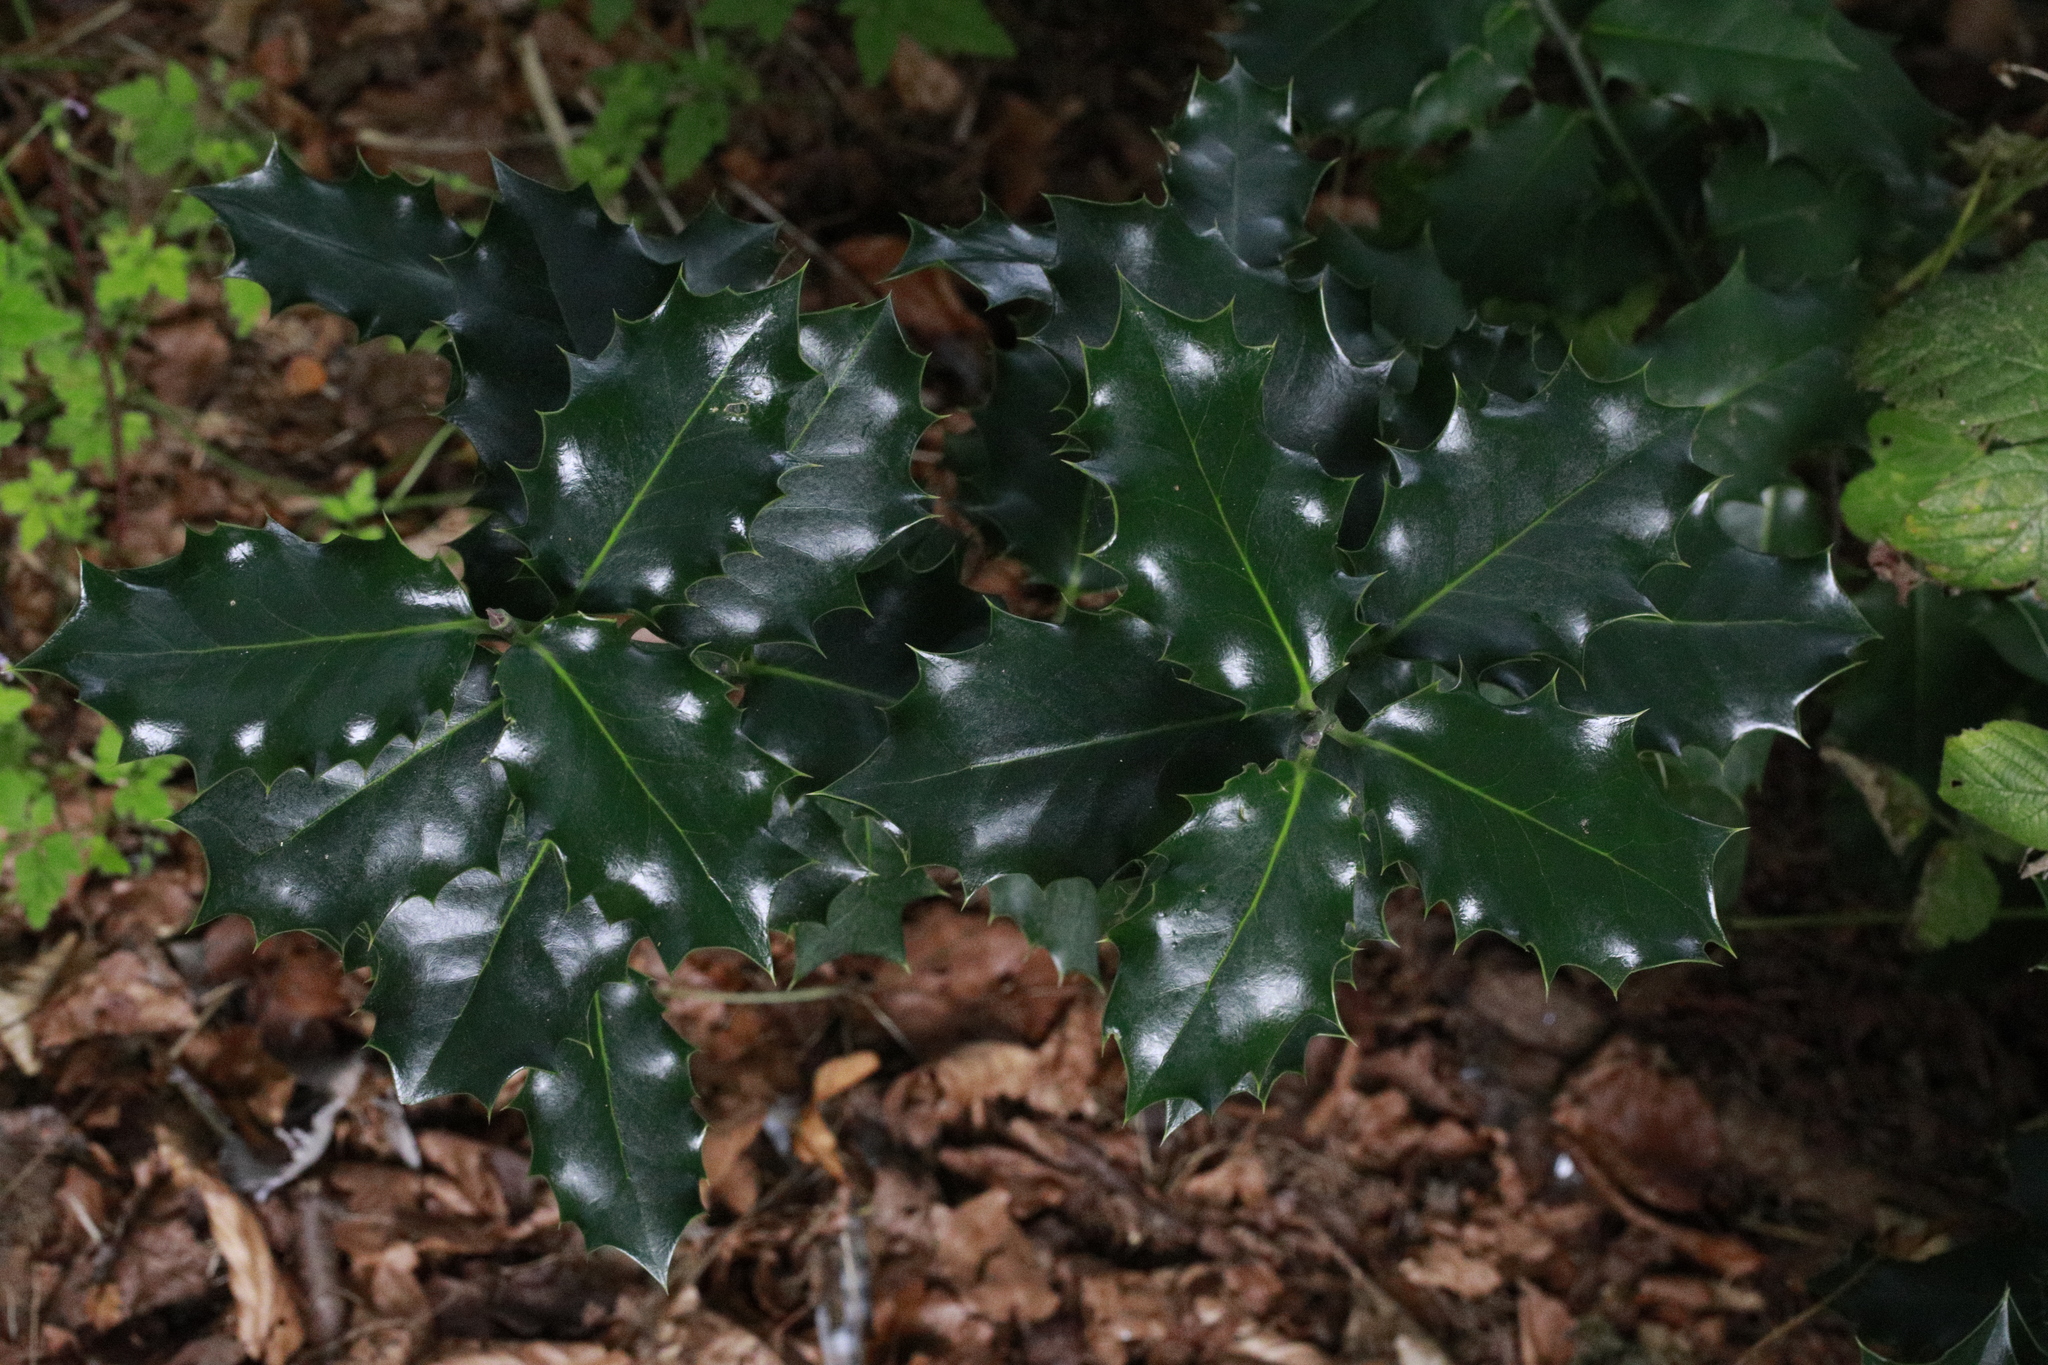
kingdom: Plantae
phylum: Tracheophyta
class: Magnoliopsida
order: Aquifoliales
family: Aquifoliaceae
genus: Ilex
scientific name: Ilex aquifolium
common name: English holly
